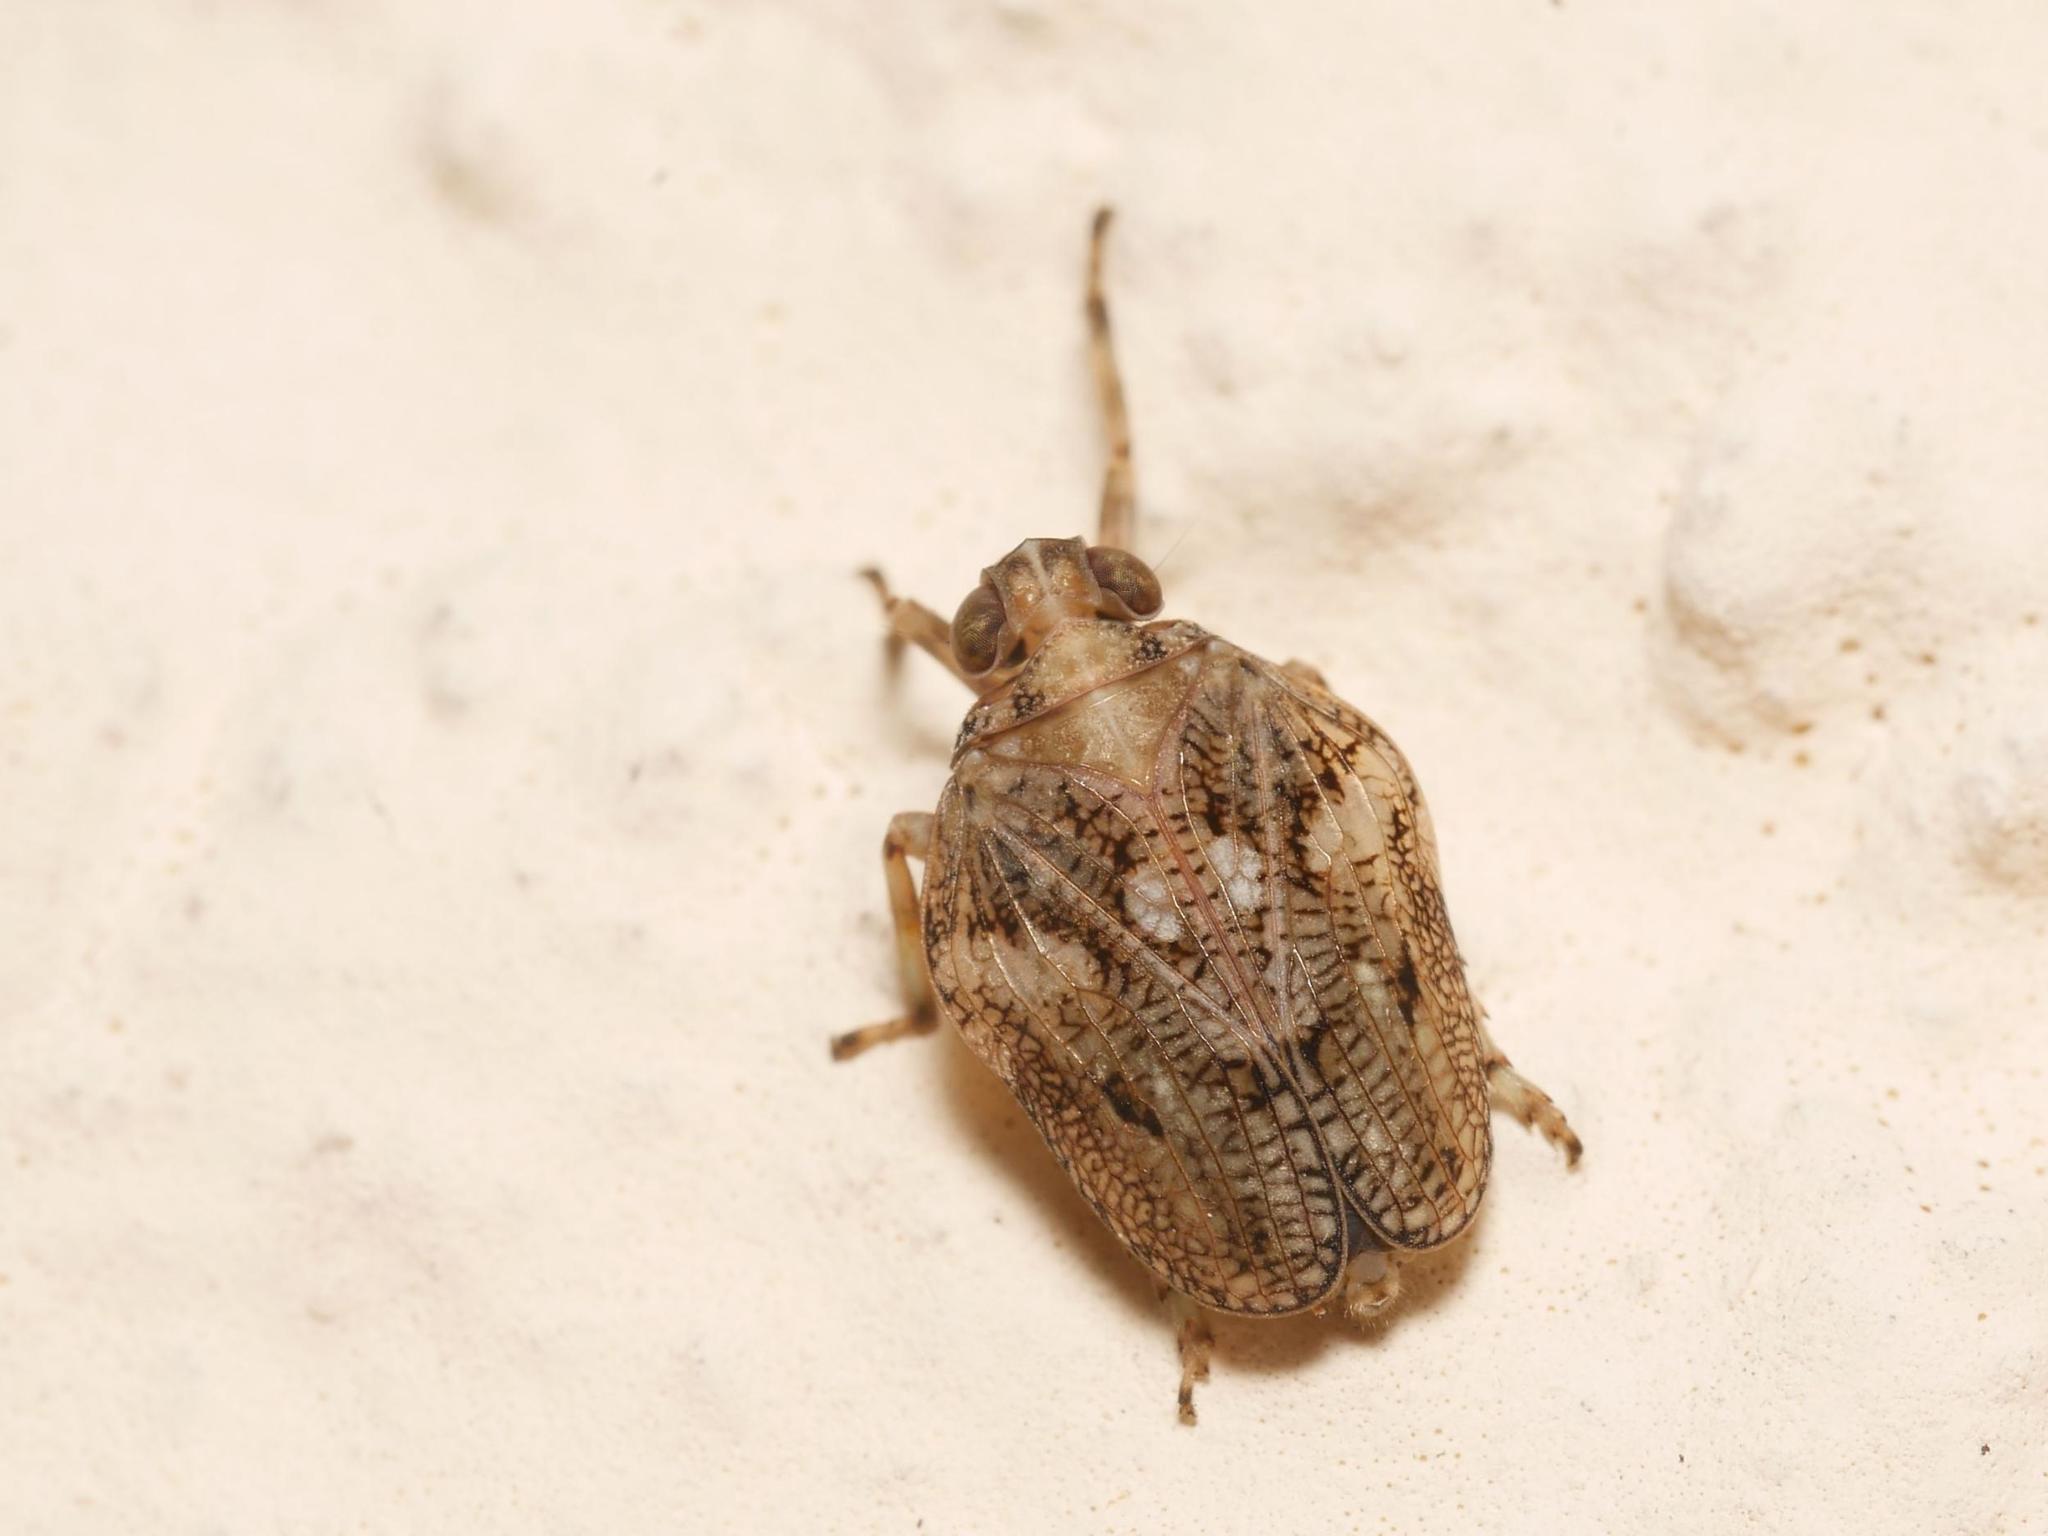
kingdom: Animalia
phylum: Arthropoda
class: Insecta
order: Hemiptera
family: Issidae
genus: Issus
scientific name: Issus coleoptratus
